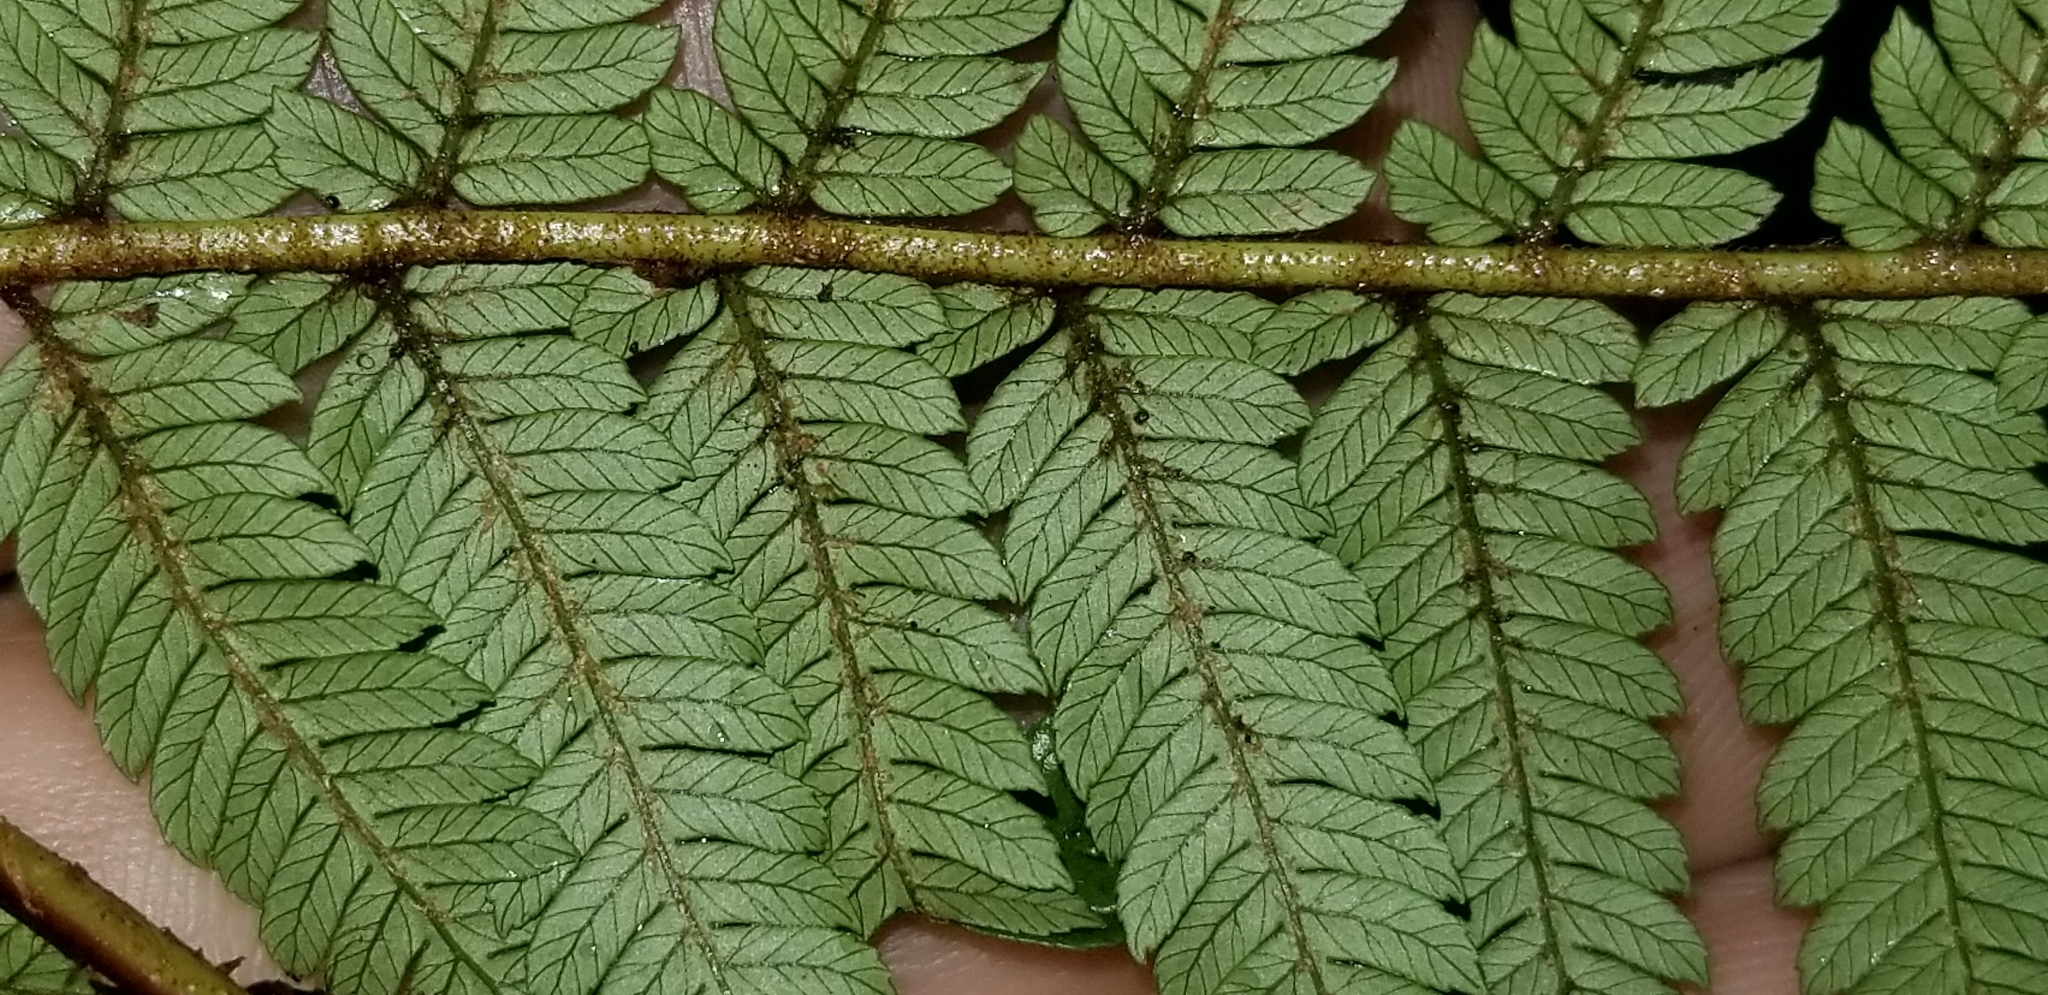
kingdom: Plantae
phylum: Tracheophyta
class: Polypodiopsida
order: Cyatheales
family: Cyatheaceae
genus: Alsophila
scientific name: Alsophila smithii
